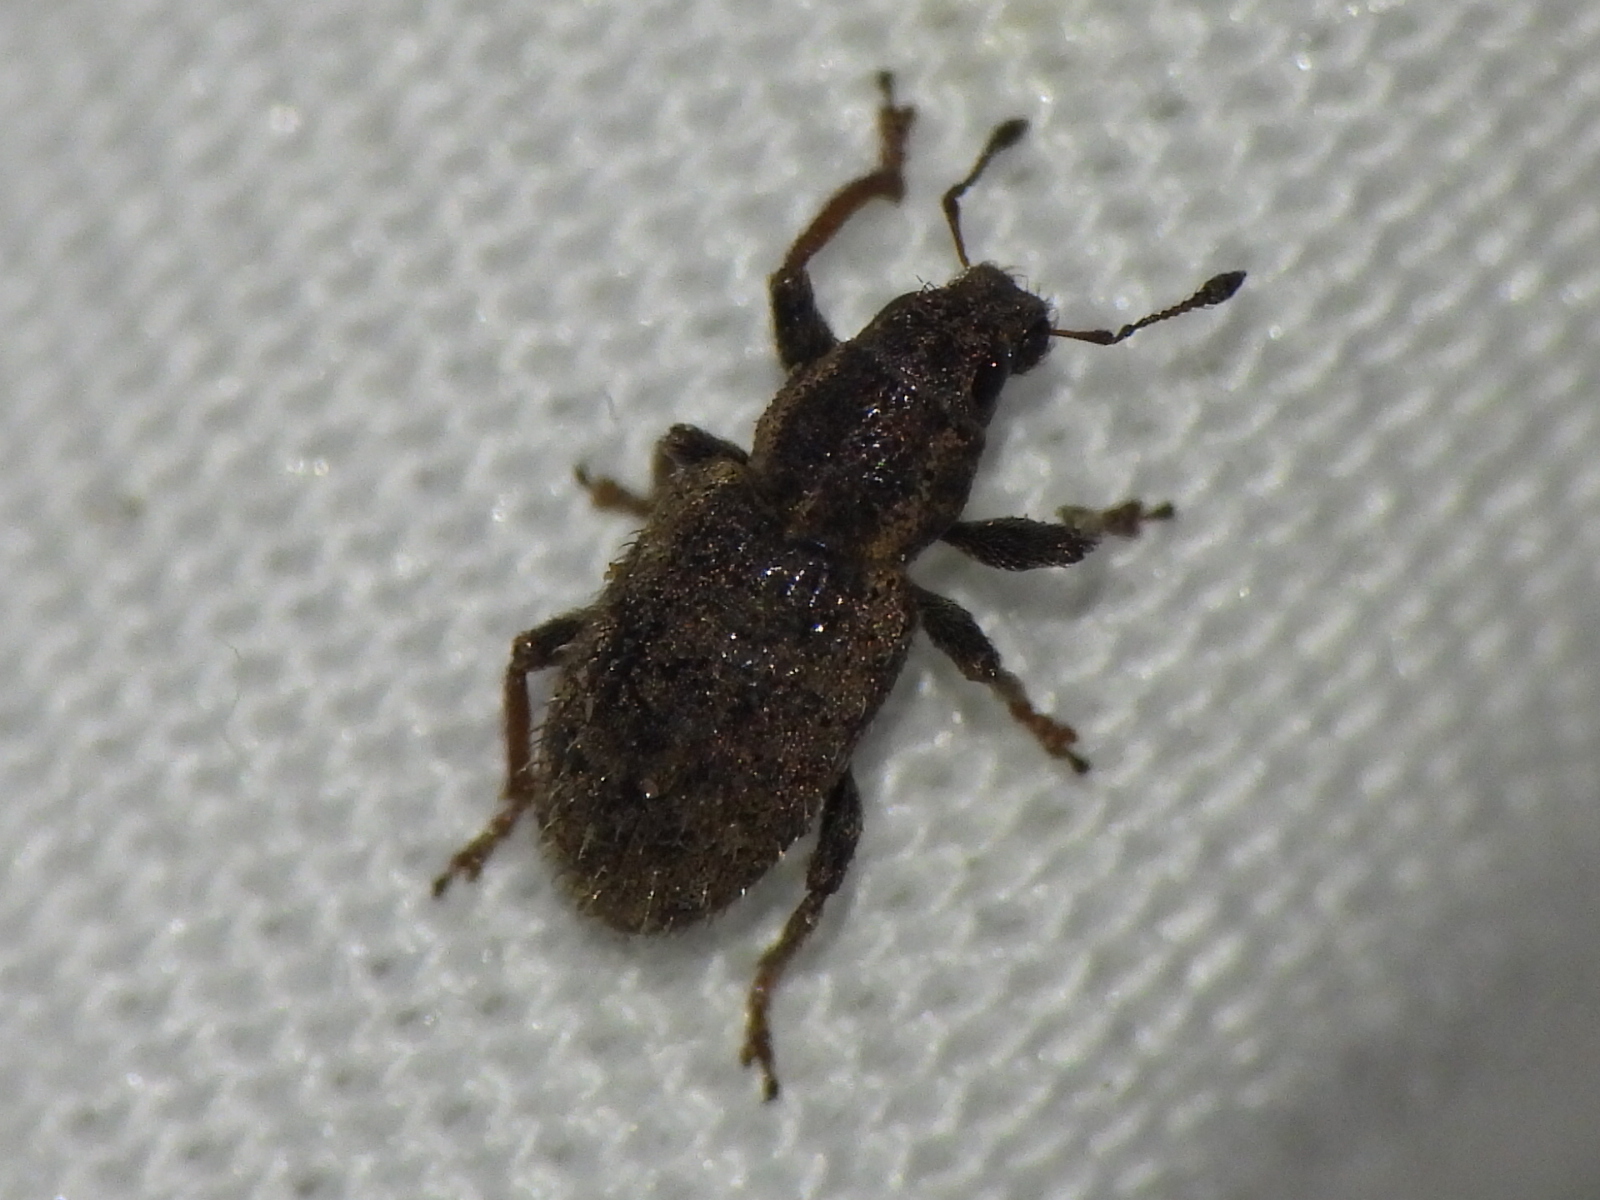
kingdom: Animalia
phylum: Arthropoda
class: Insecta
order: Coleoptera
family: Curculionidae
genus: Sitona
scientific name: Sitona hispidulus
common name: Clover weevil
